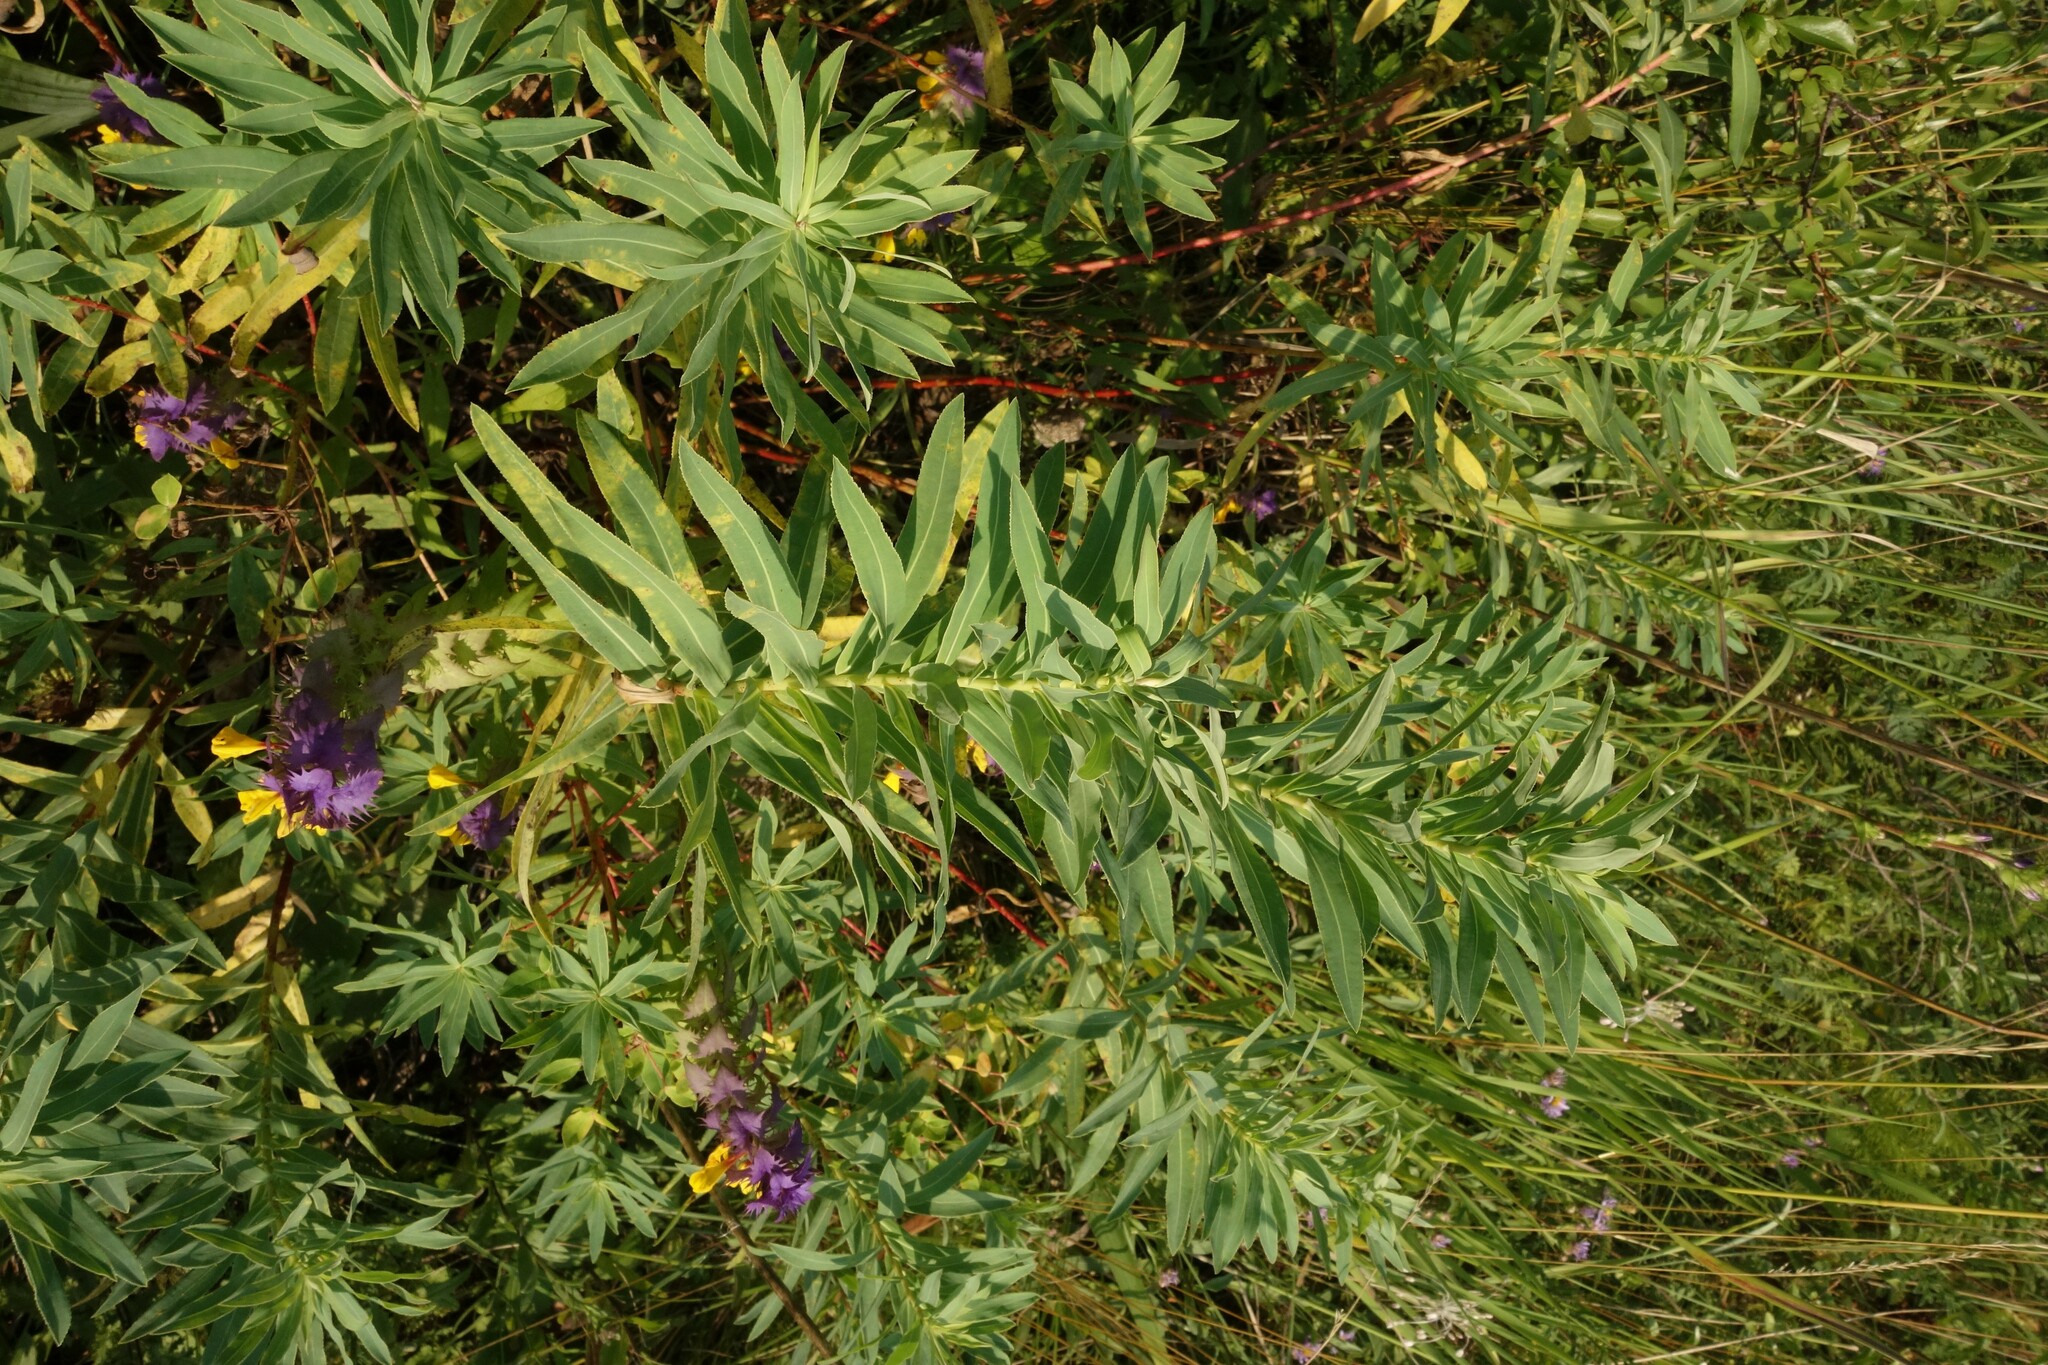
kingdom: Plantae
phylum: Tracheophyta
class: Magnoliopsida
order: Malpighiales
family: Euphorbiaceae
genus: Euphorbia
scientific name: Euphorbia semivillosa
